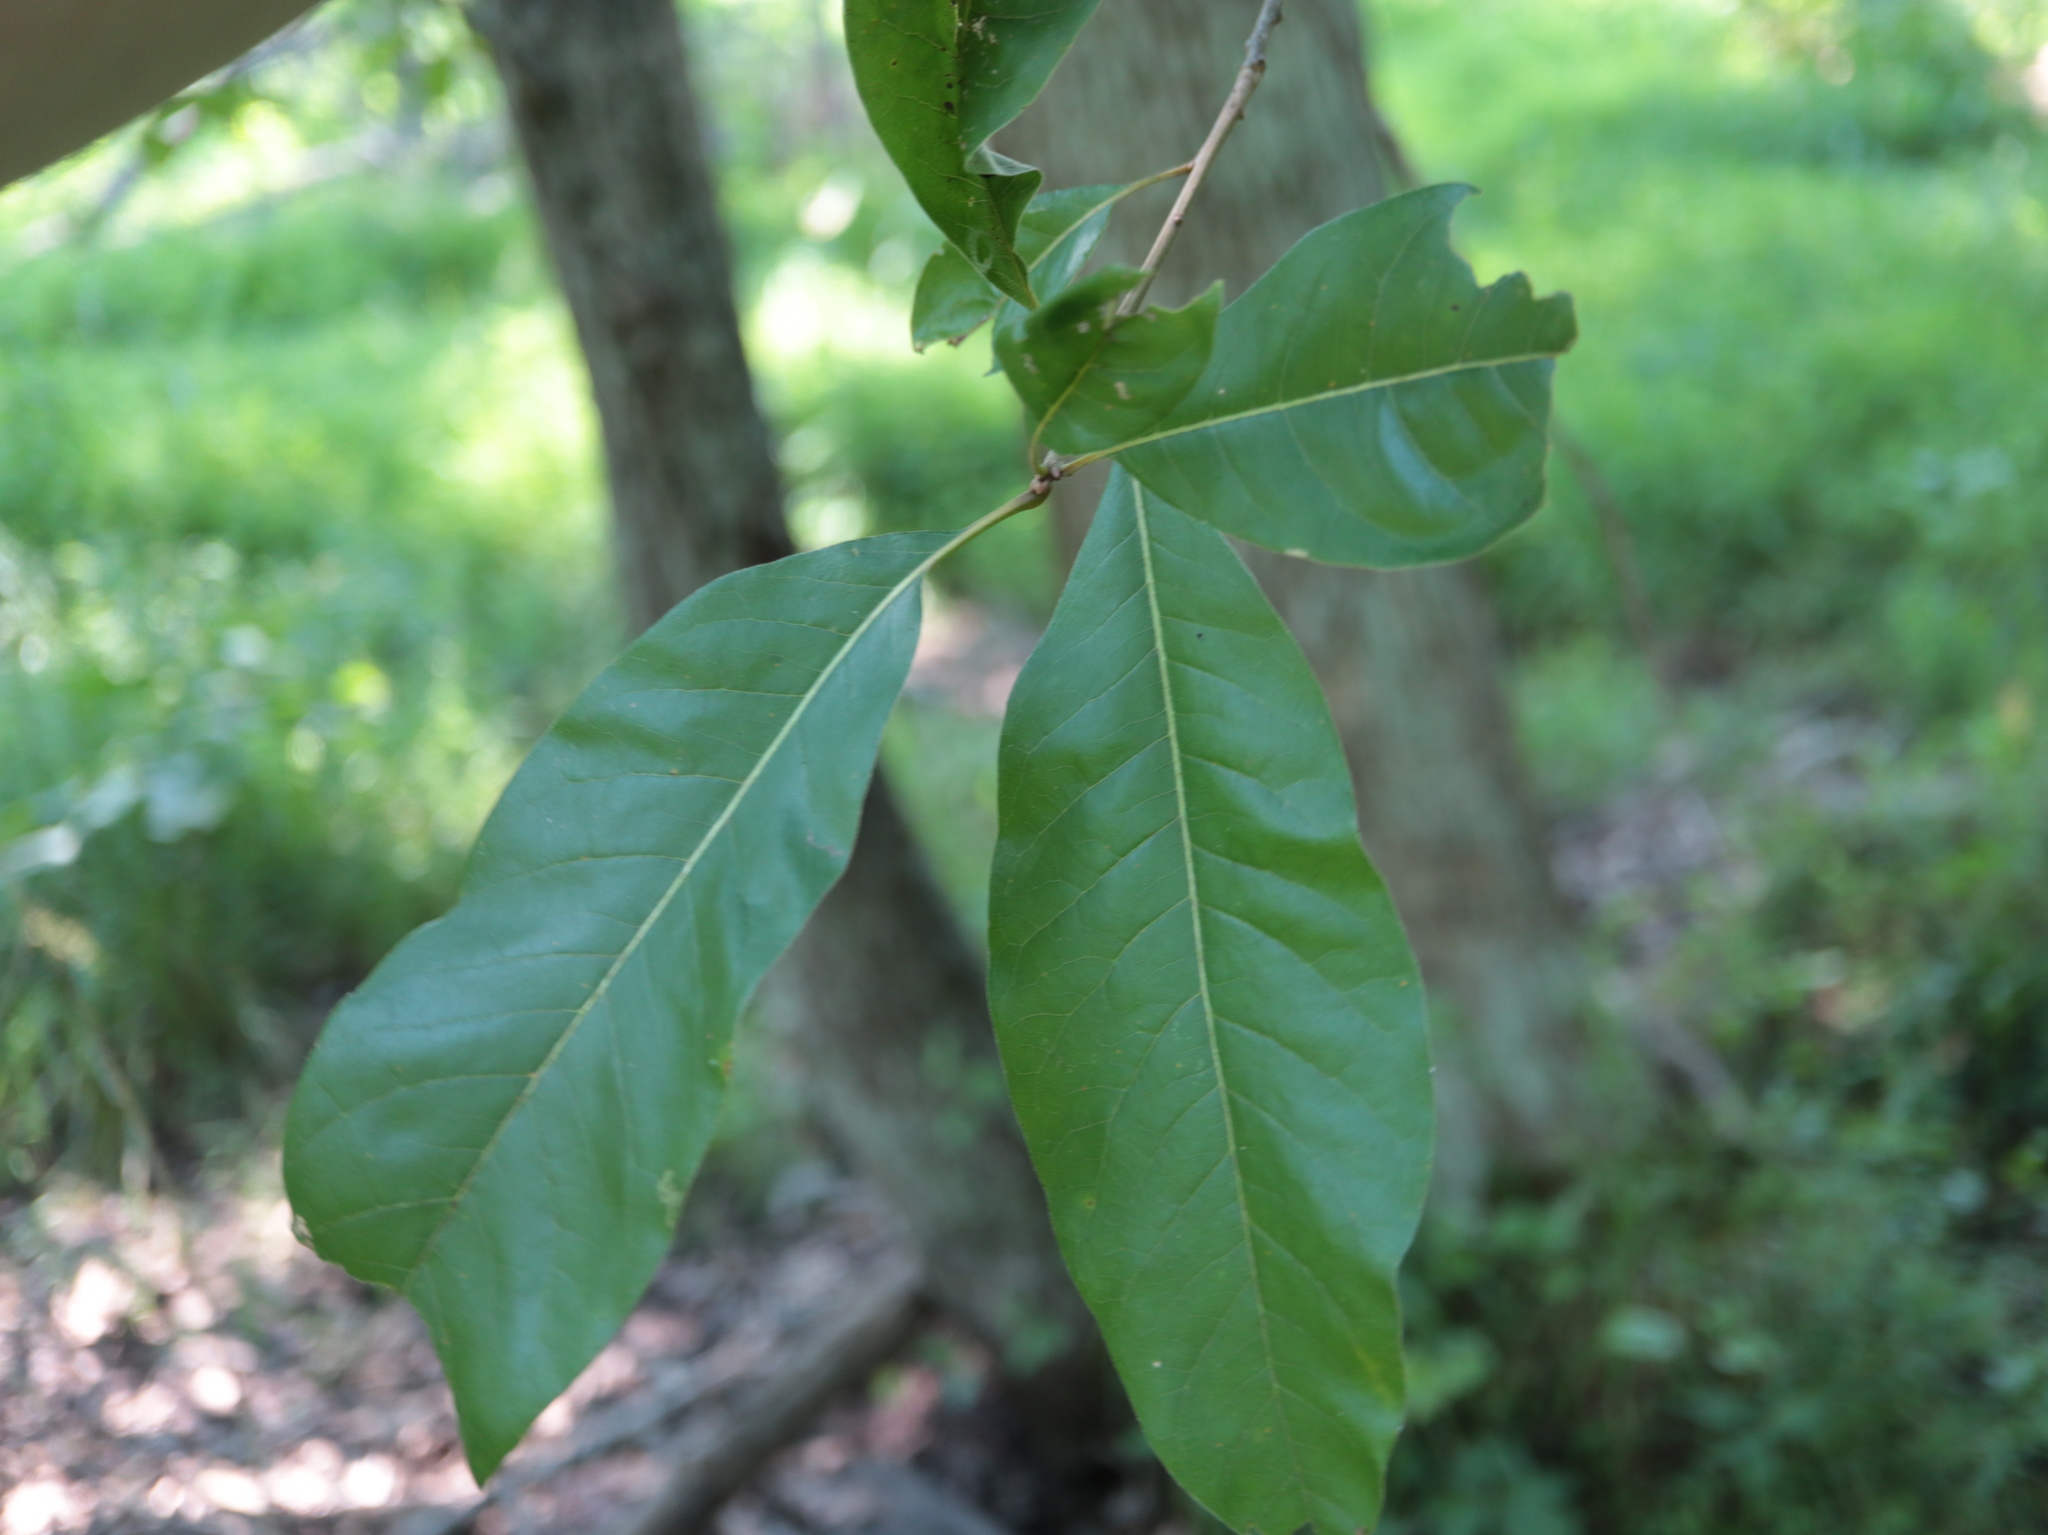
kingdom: Plantae
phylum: Tracheophyta
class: Magnoliopsida
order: Fagales
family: Fagaceae
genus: Quercus
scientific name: Quercus imbricaria
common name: Shingle oak
